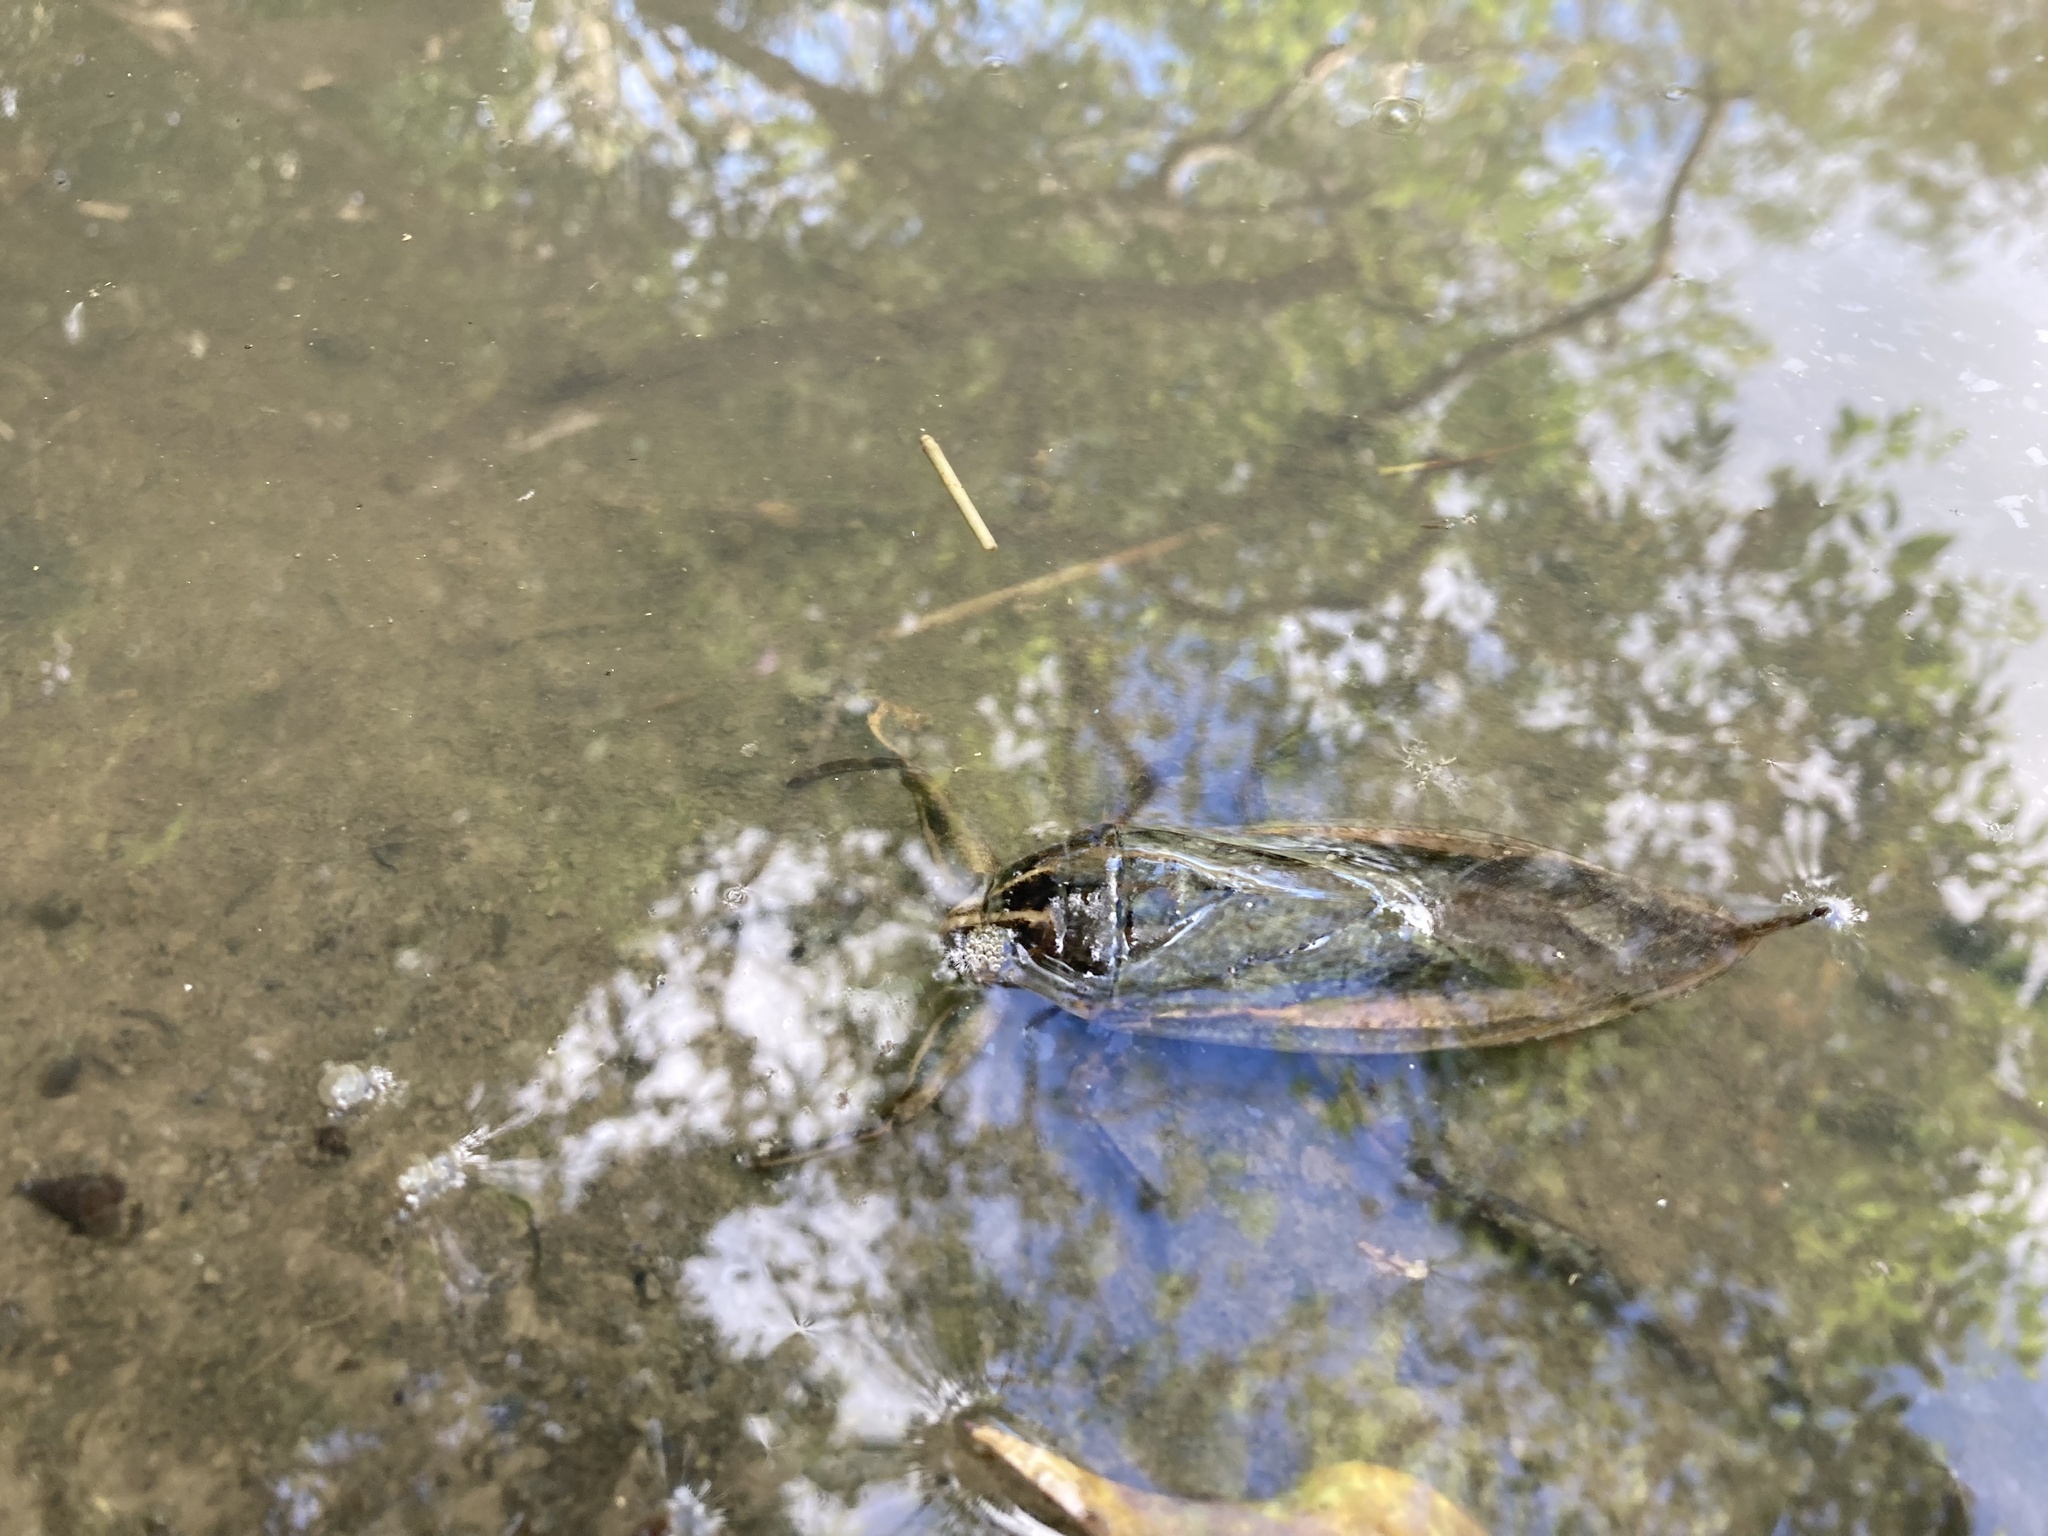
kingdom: Animalia
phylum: Arthropoda
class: Insecta
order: Hemiptera
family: Belostomatidae
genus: Lethocerus
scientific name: Lethocerus indicus
